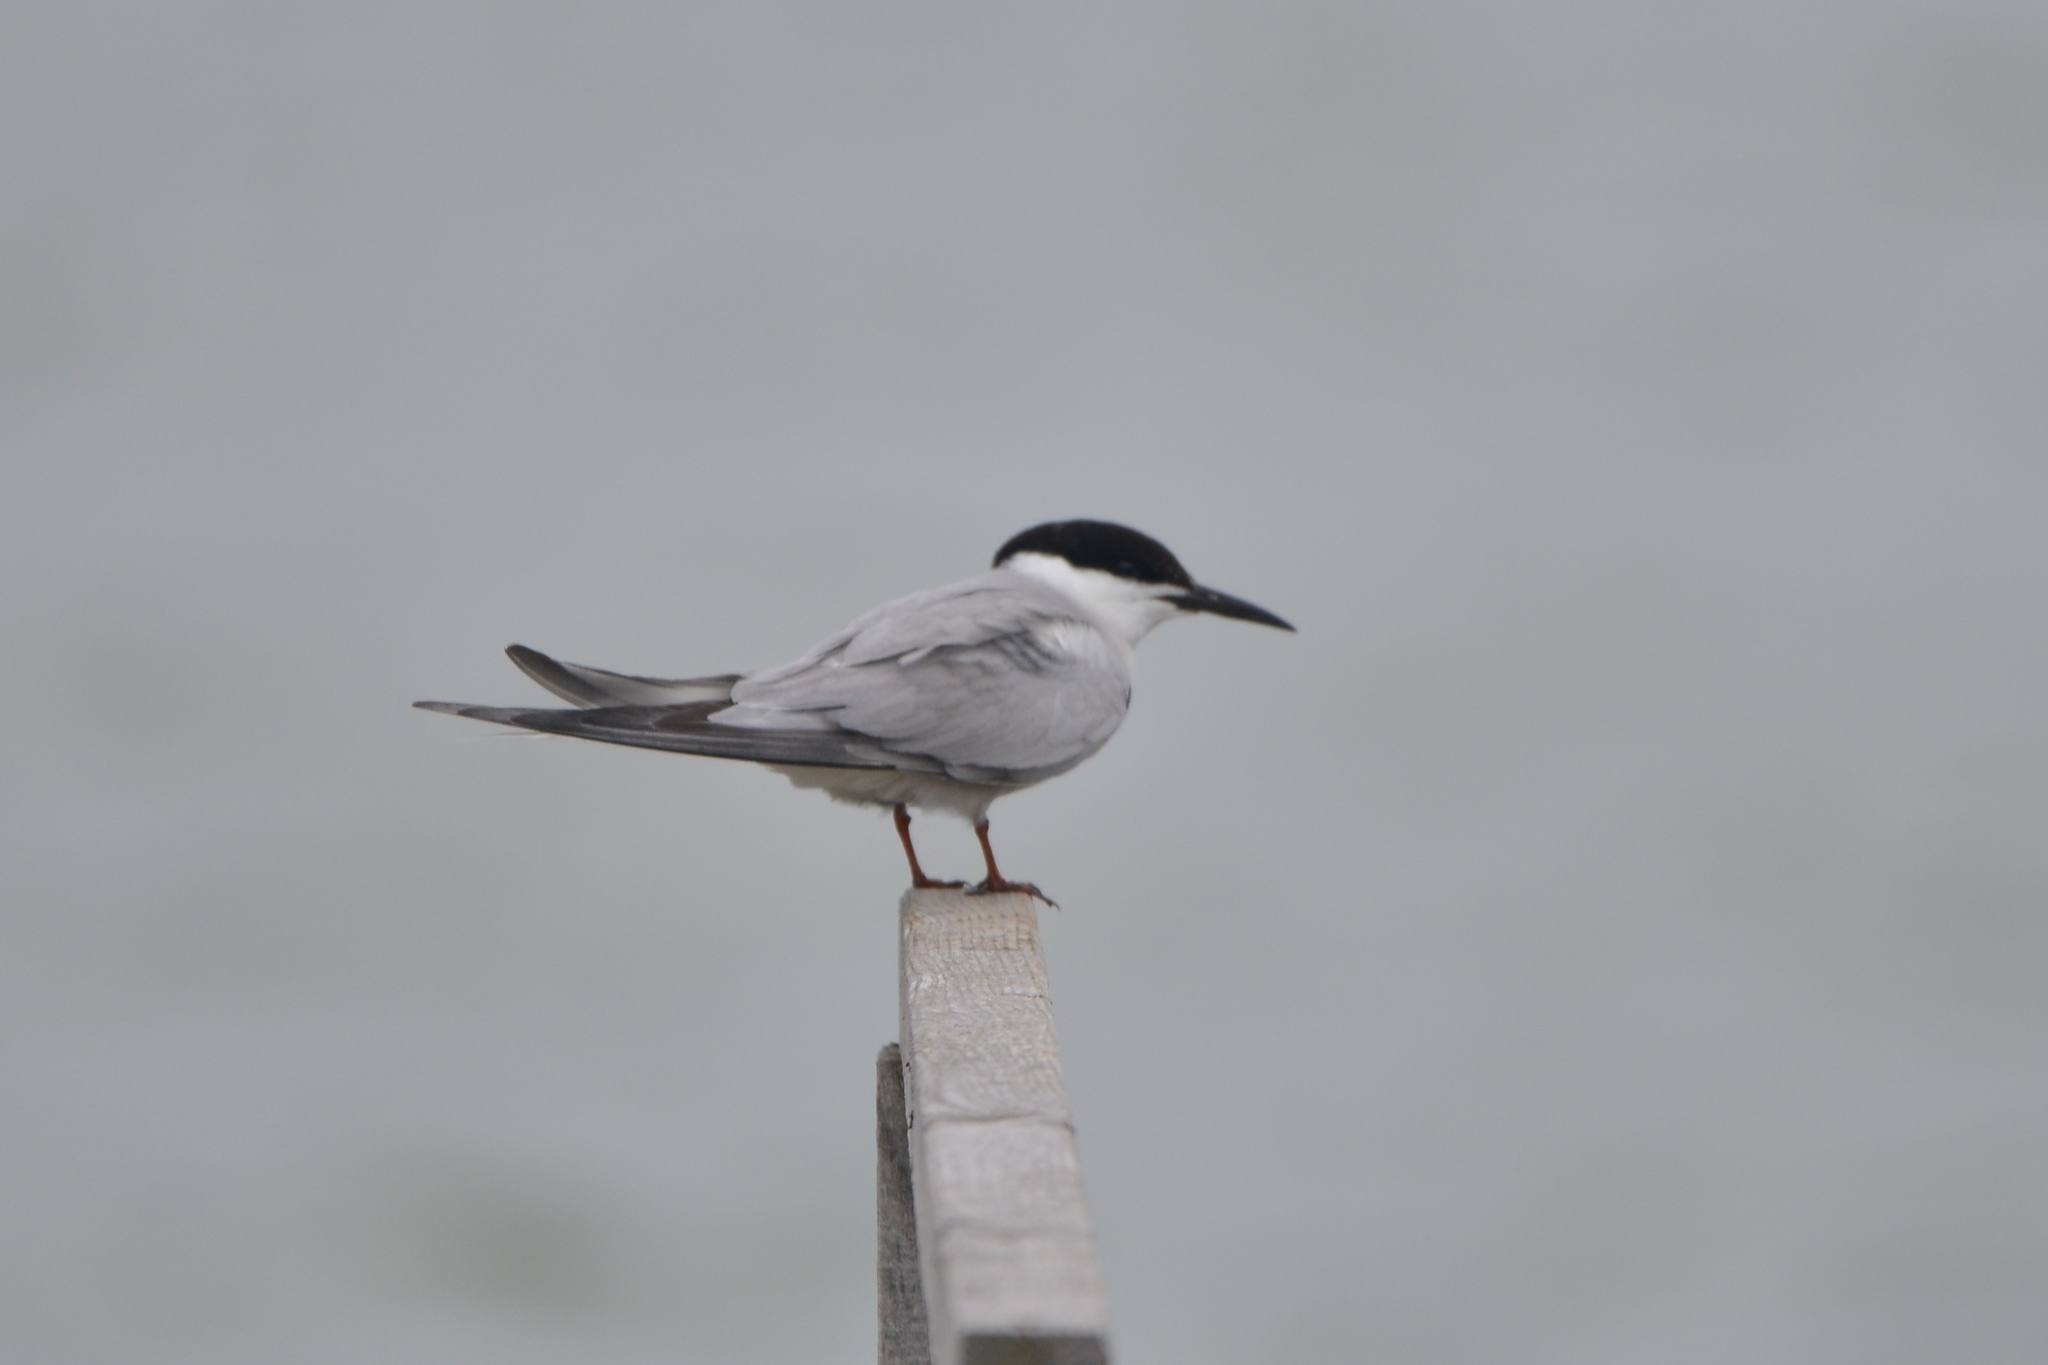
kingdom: Animalia
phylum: Chordata
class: Aves
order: Charadriiformes
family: Laridae
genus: Sterna
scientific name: Sterna hirundo
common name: Common tern
